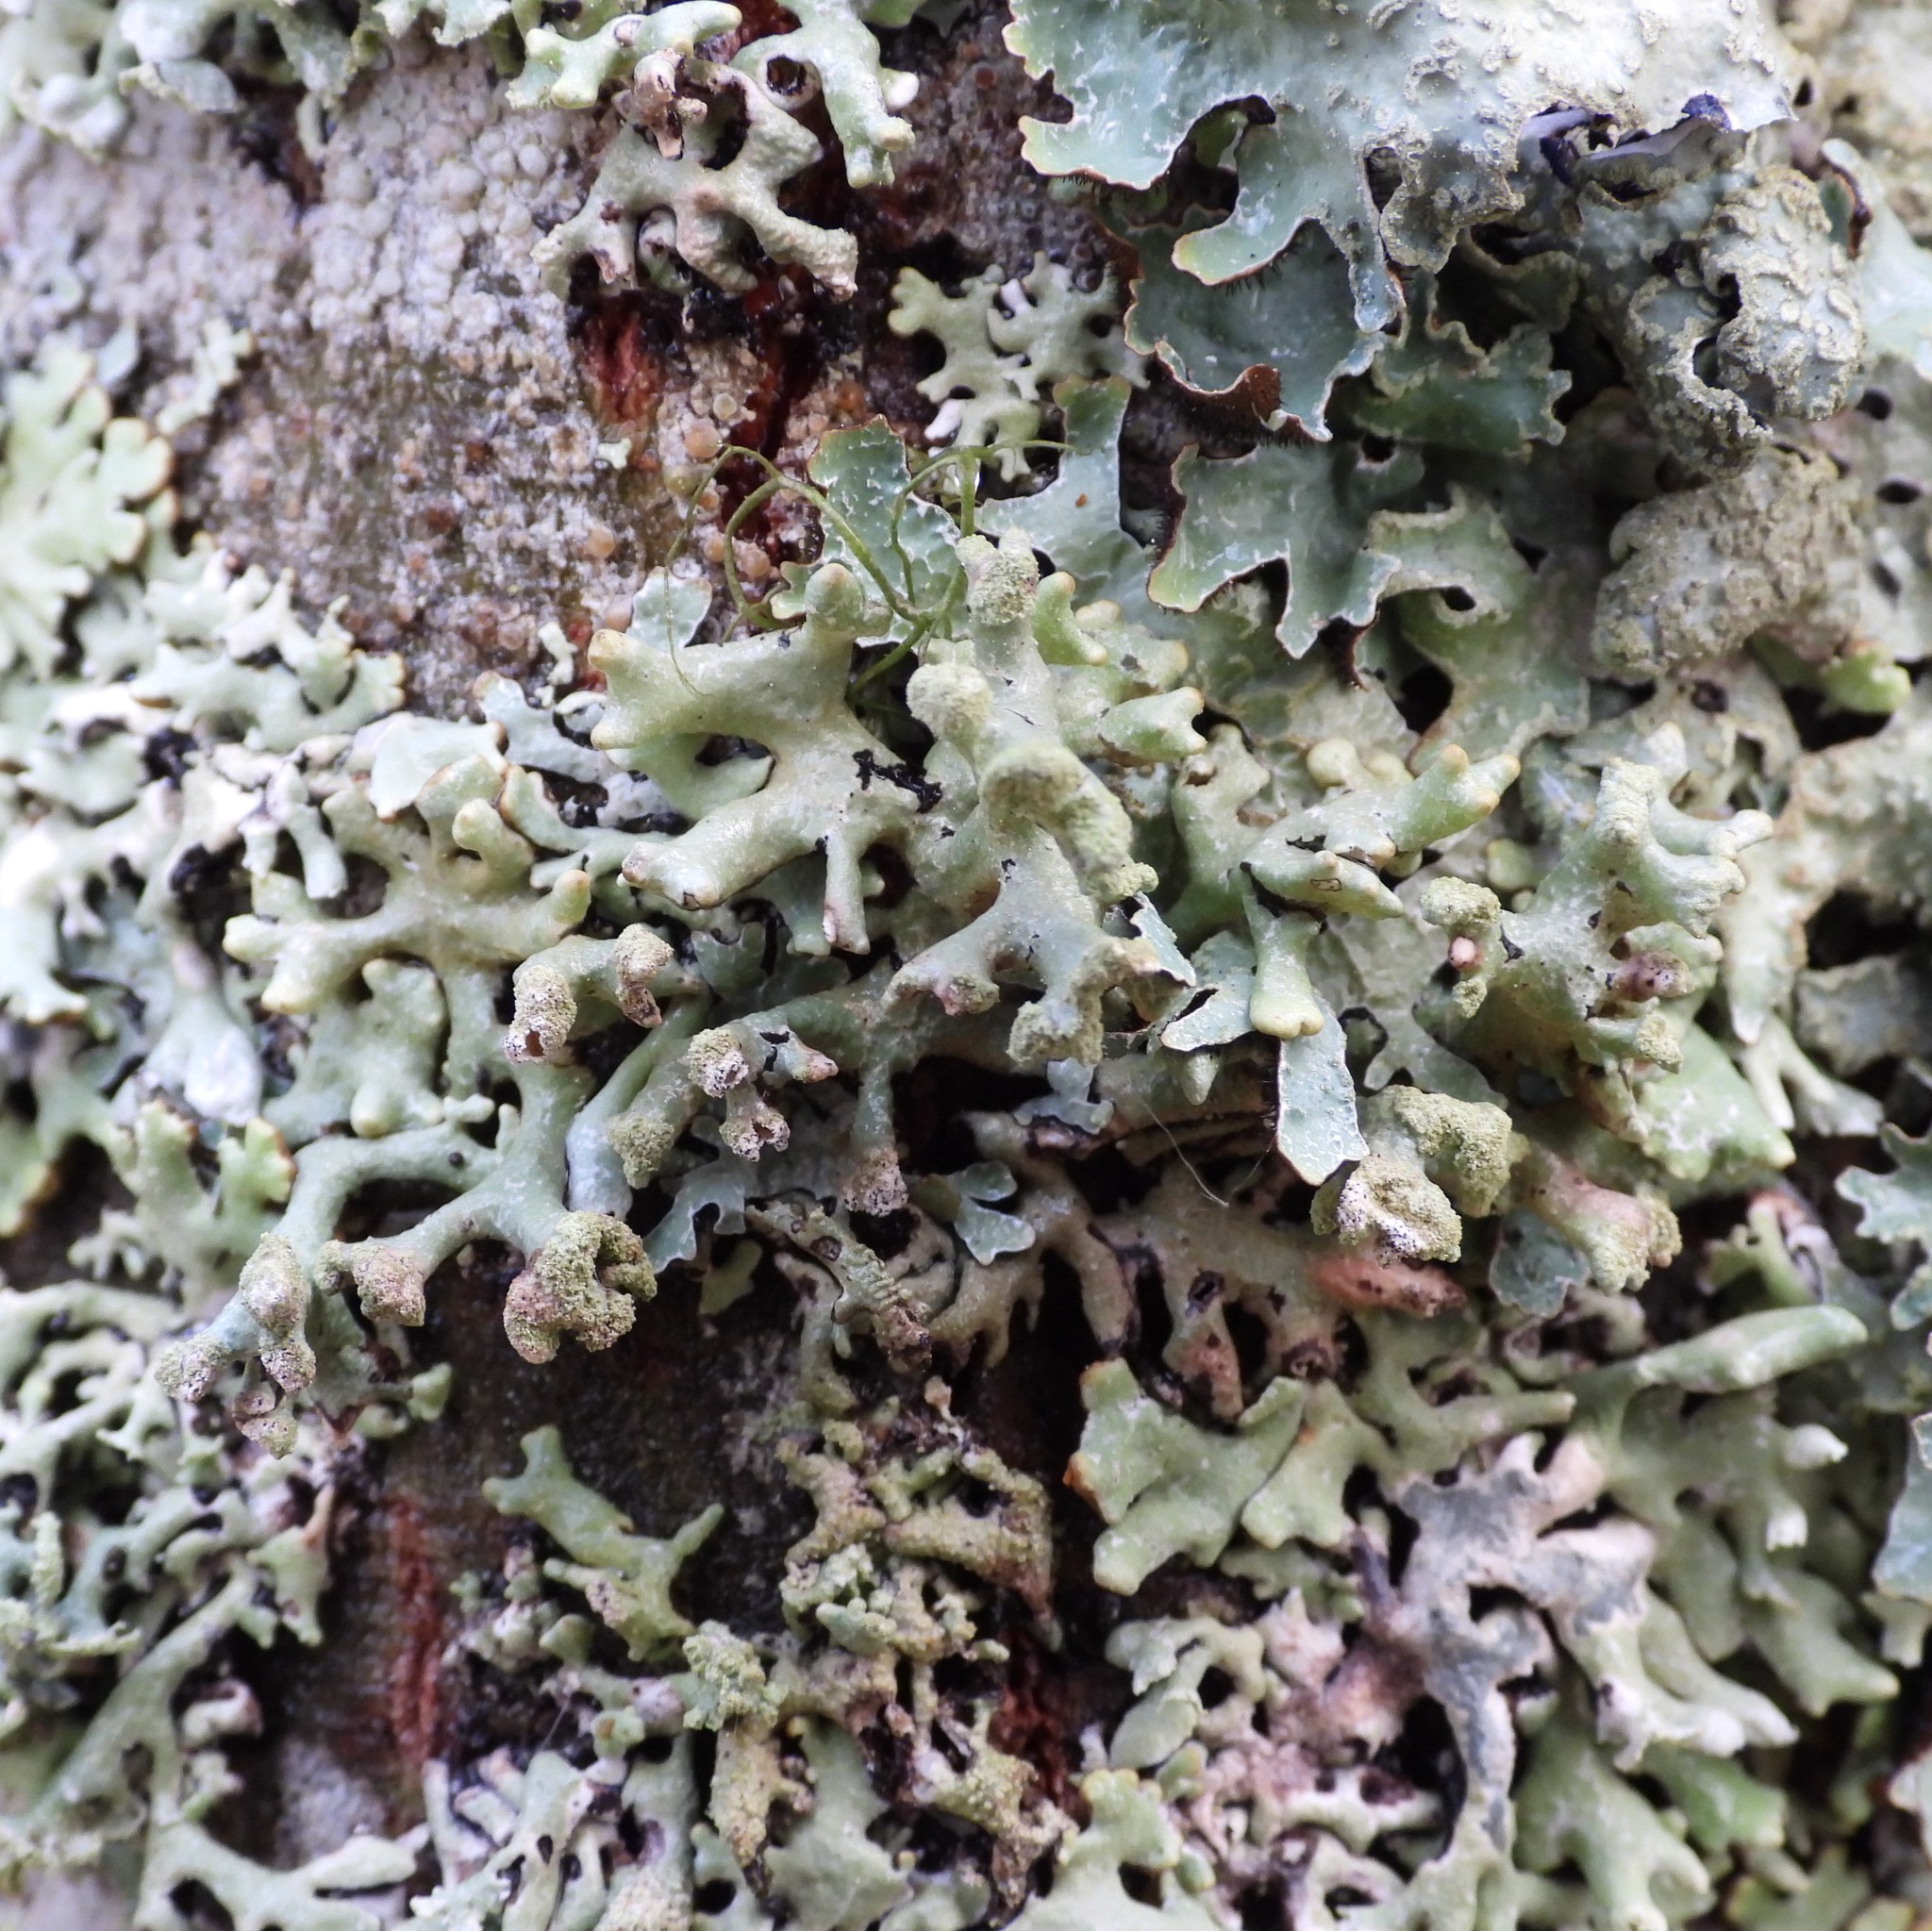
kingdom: Fungi
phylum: Ascomycota
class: Lecanoromycetes
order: Lecanorales
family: Parmeliaceae
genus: Hypogymnia
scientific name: Hypogymnia tubulosa
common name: Powder-headed tube lichen
